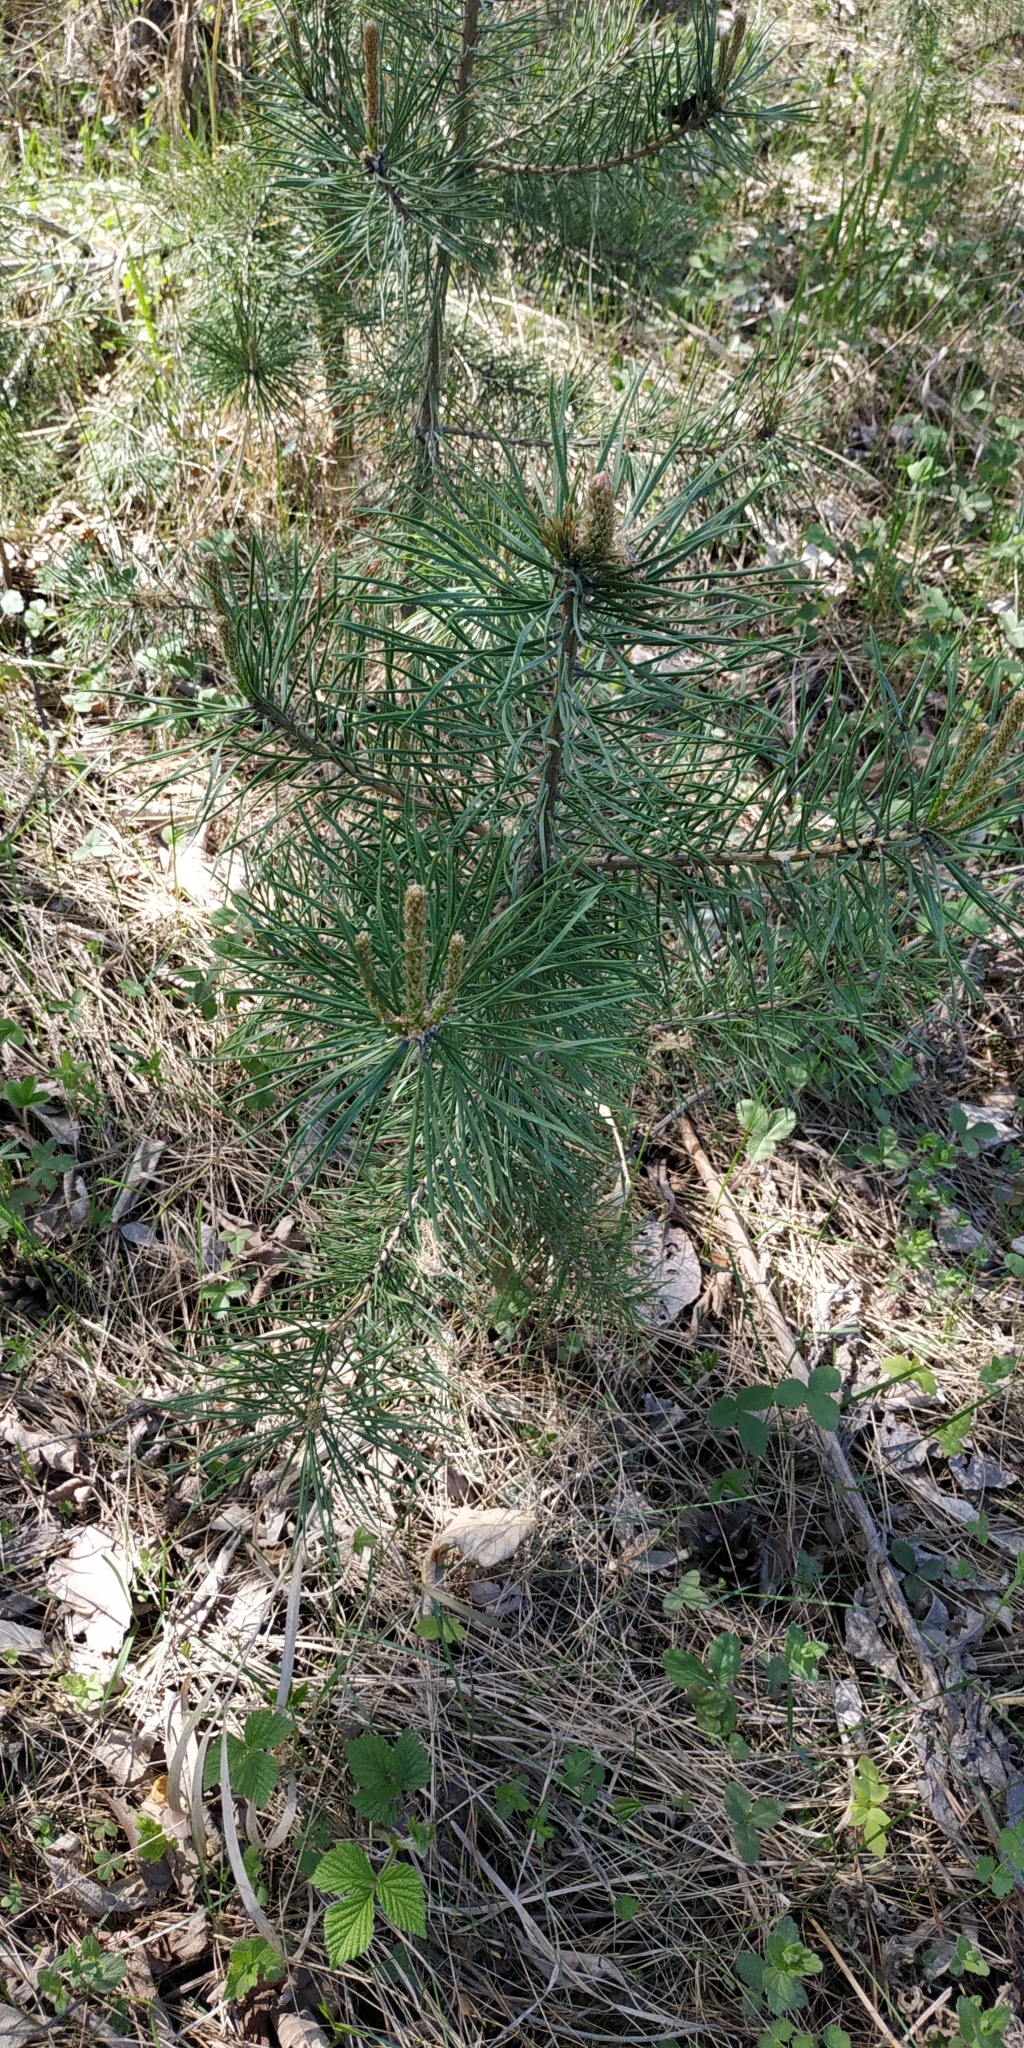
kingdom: Plantae
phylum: Tracheophyta
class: Pinopsida
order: Pinales
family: Pinaceae
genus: Pinus
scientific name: Pinus sylvestris
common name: Scots pine
